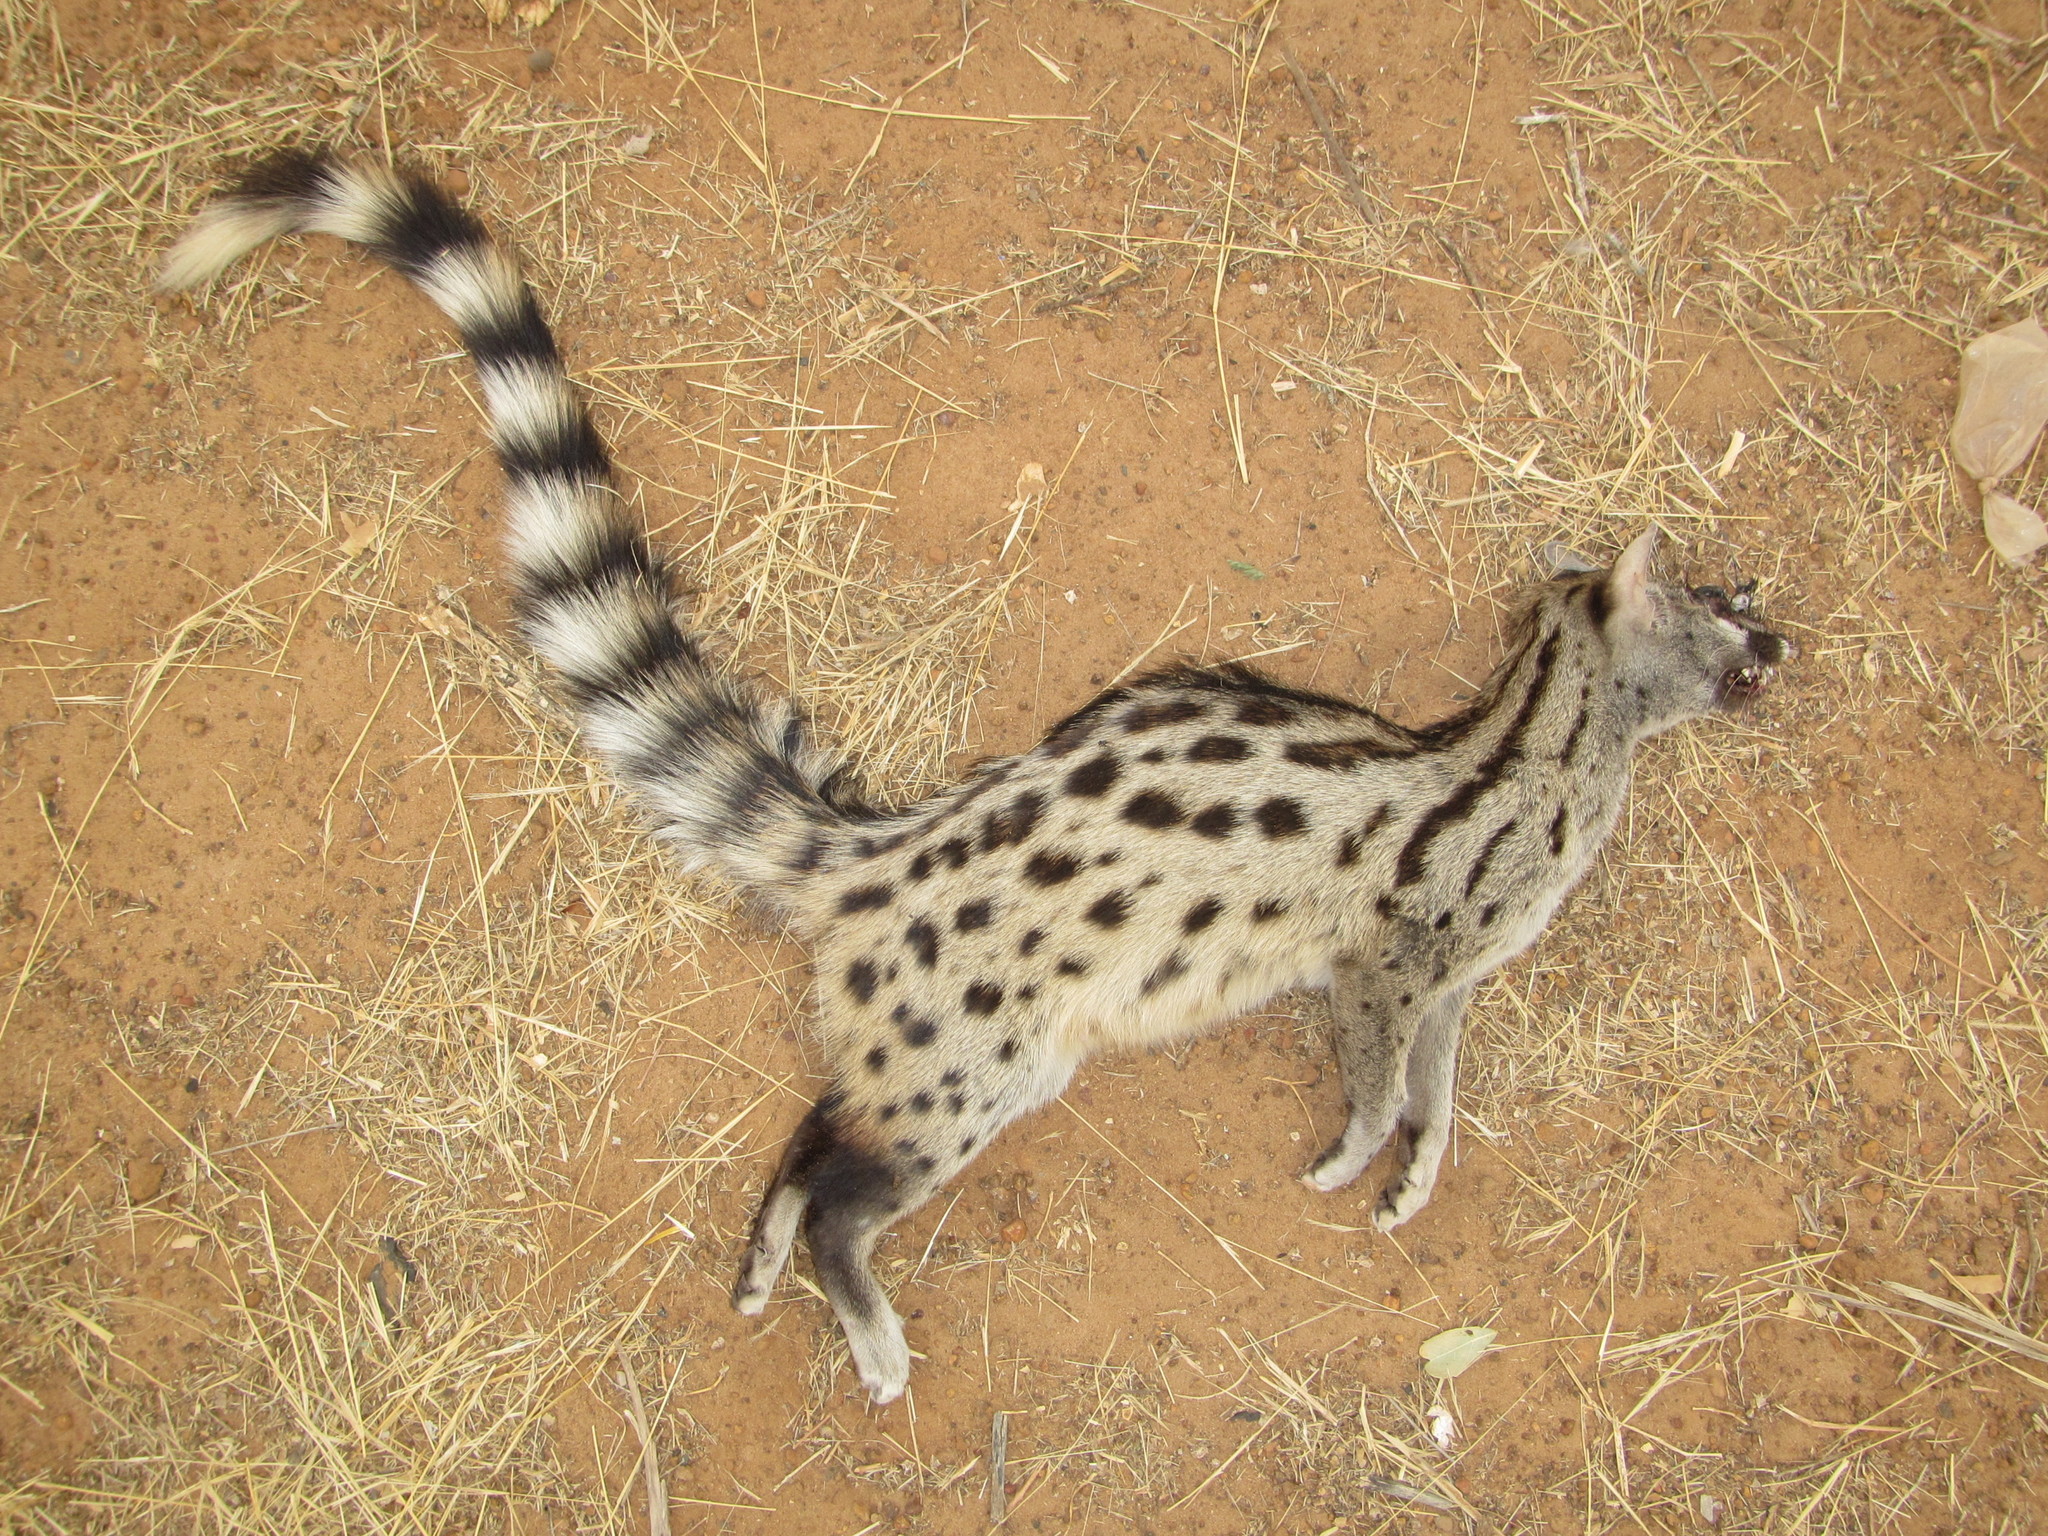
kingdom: Animalia
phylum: Chordata
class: Mammalia
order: Carnivora
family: Viverridae
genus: Genetta
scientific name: Genetta genetta
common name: Common genet
